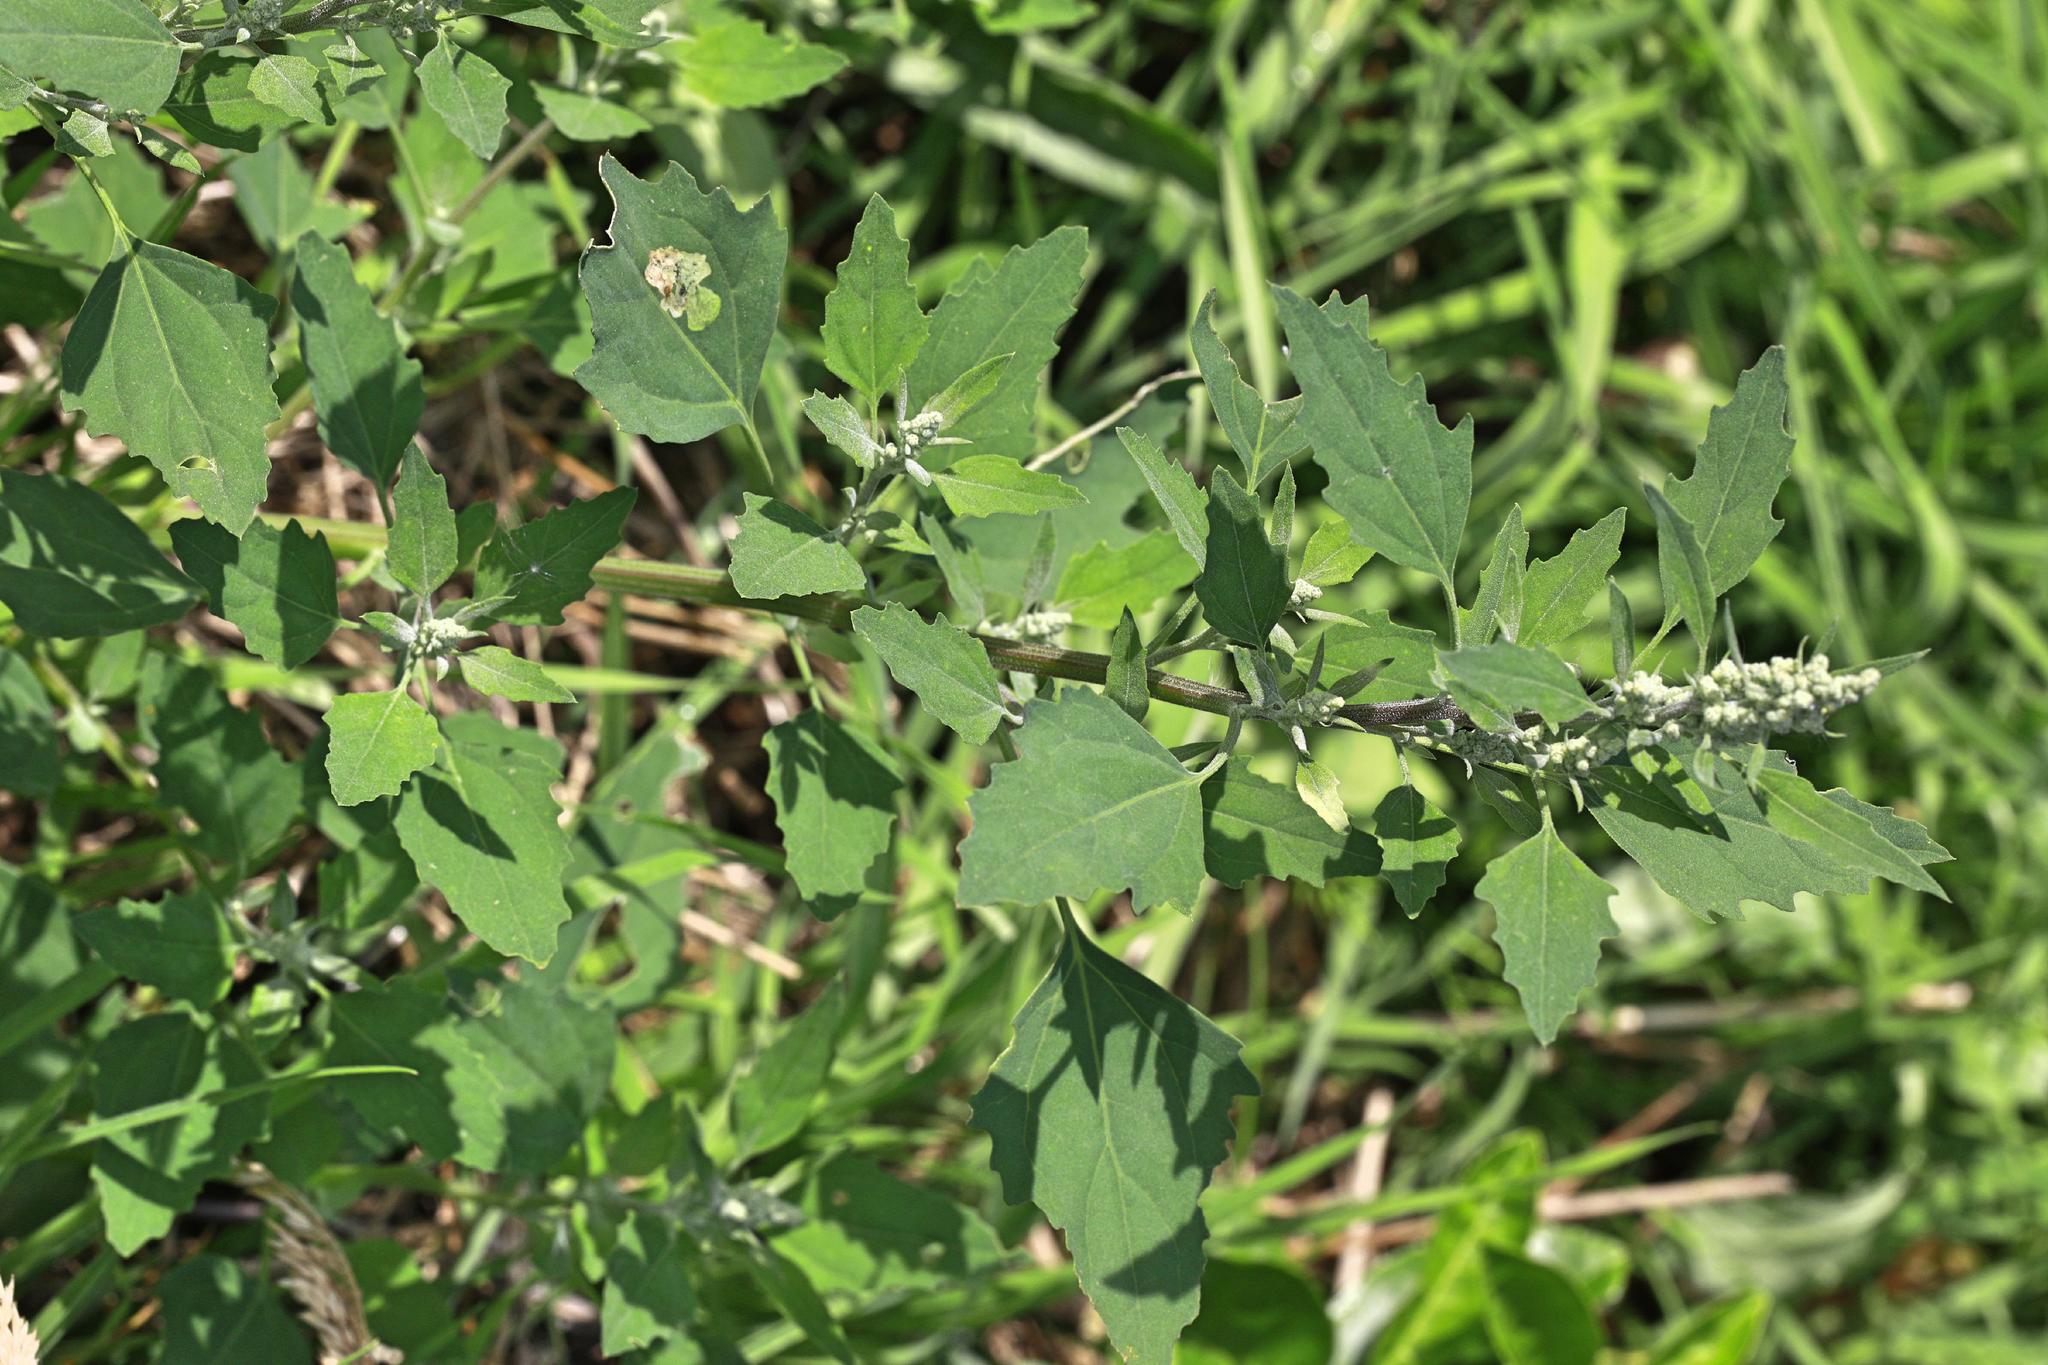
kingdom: Plantae
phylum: Tracheophyta
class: Magnoliopsida
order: Caryophyllales
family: Amaranthaceae
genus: Chenopodium
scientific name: Chenopodium album
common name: Fat-hen
